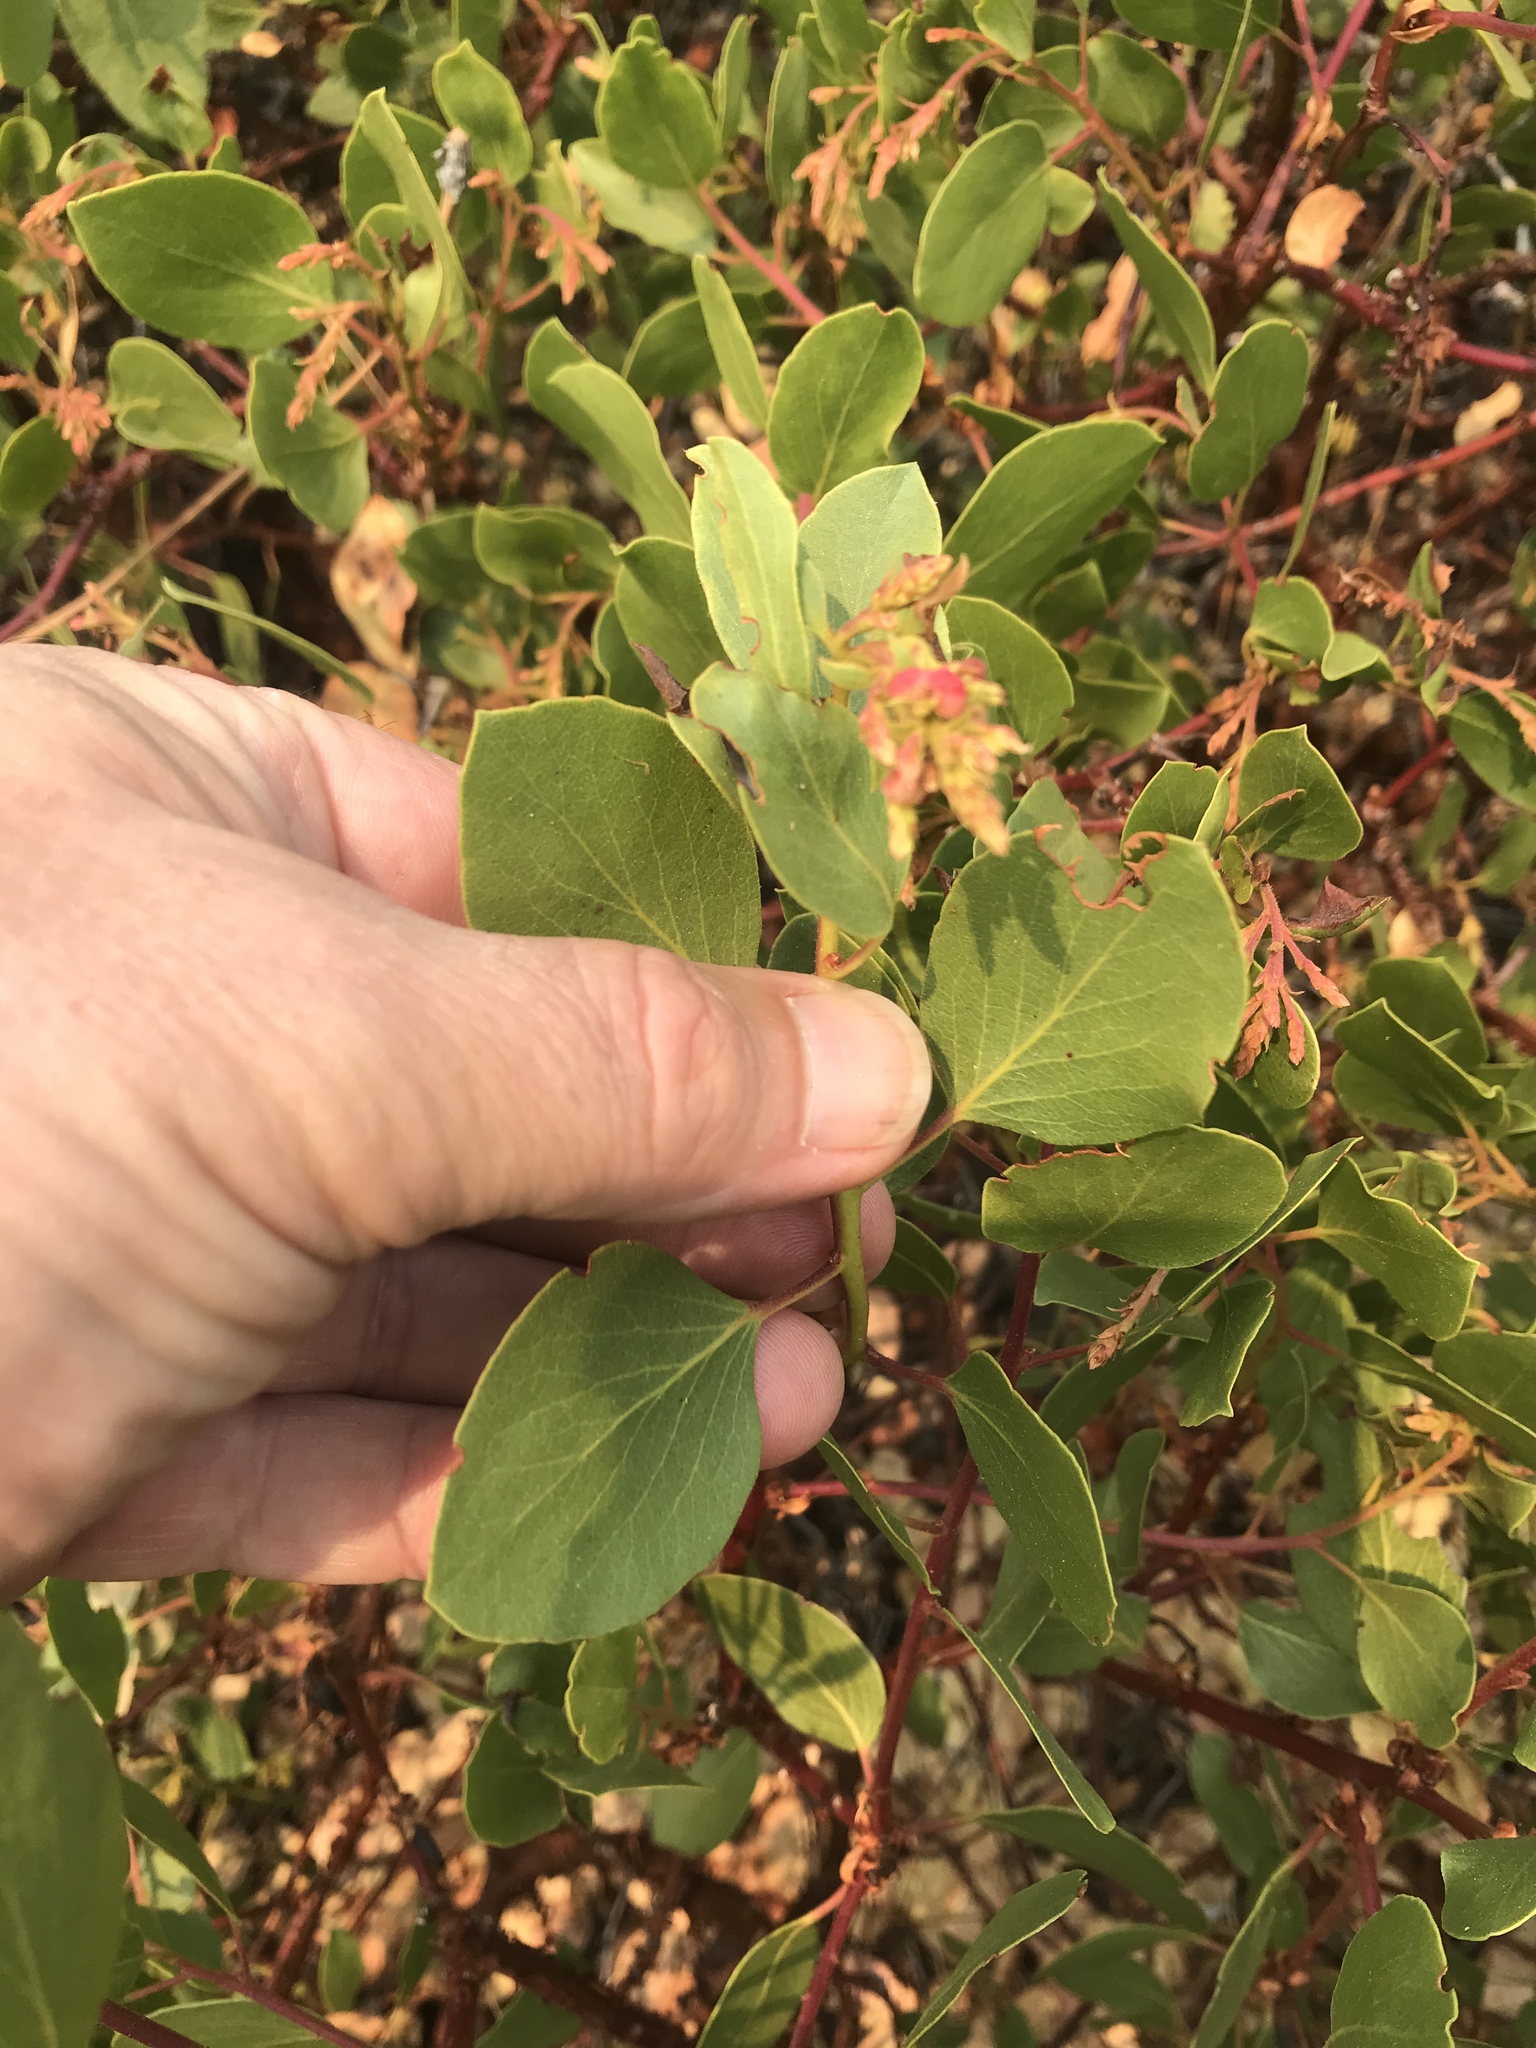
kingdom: Plantae
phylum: Tracheophyta
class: Magnoliopsida
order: Ericales
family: Ericaceae
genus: Arctostaphylos
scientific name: Arctostaphylos patula
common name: Green-leaf manzanita
